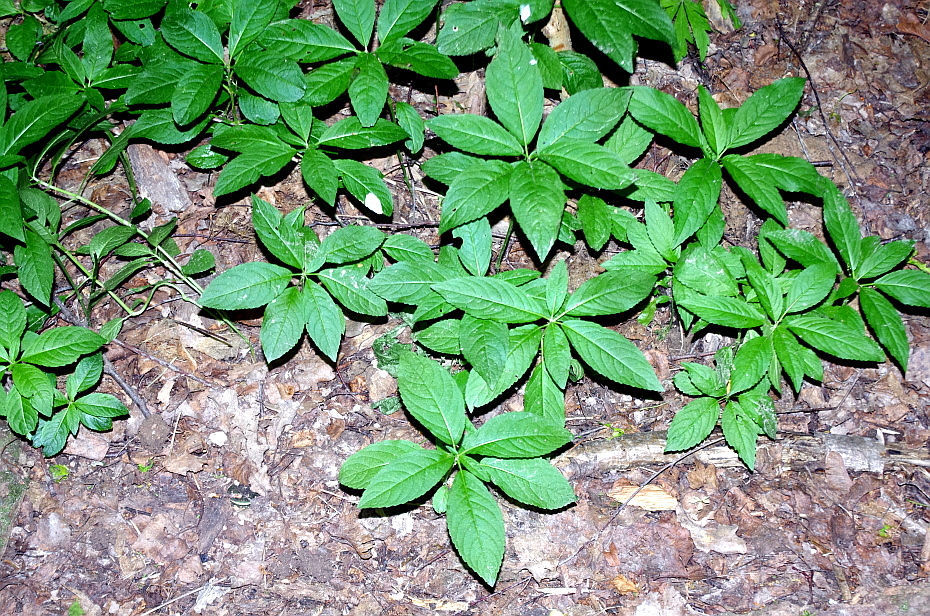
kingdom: Plantae
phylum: Tracheophyta
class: Magnoliopsida
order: Malpighiales
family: Euphorbiaceae
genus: Mercurialis
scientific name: Mercurialis perennis
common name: Dog mercury
